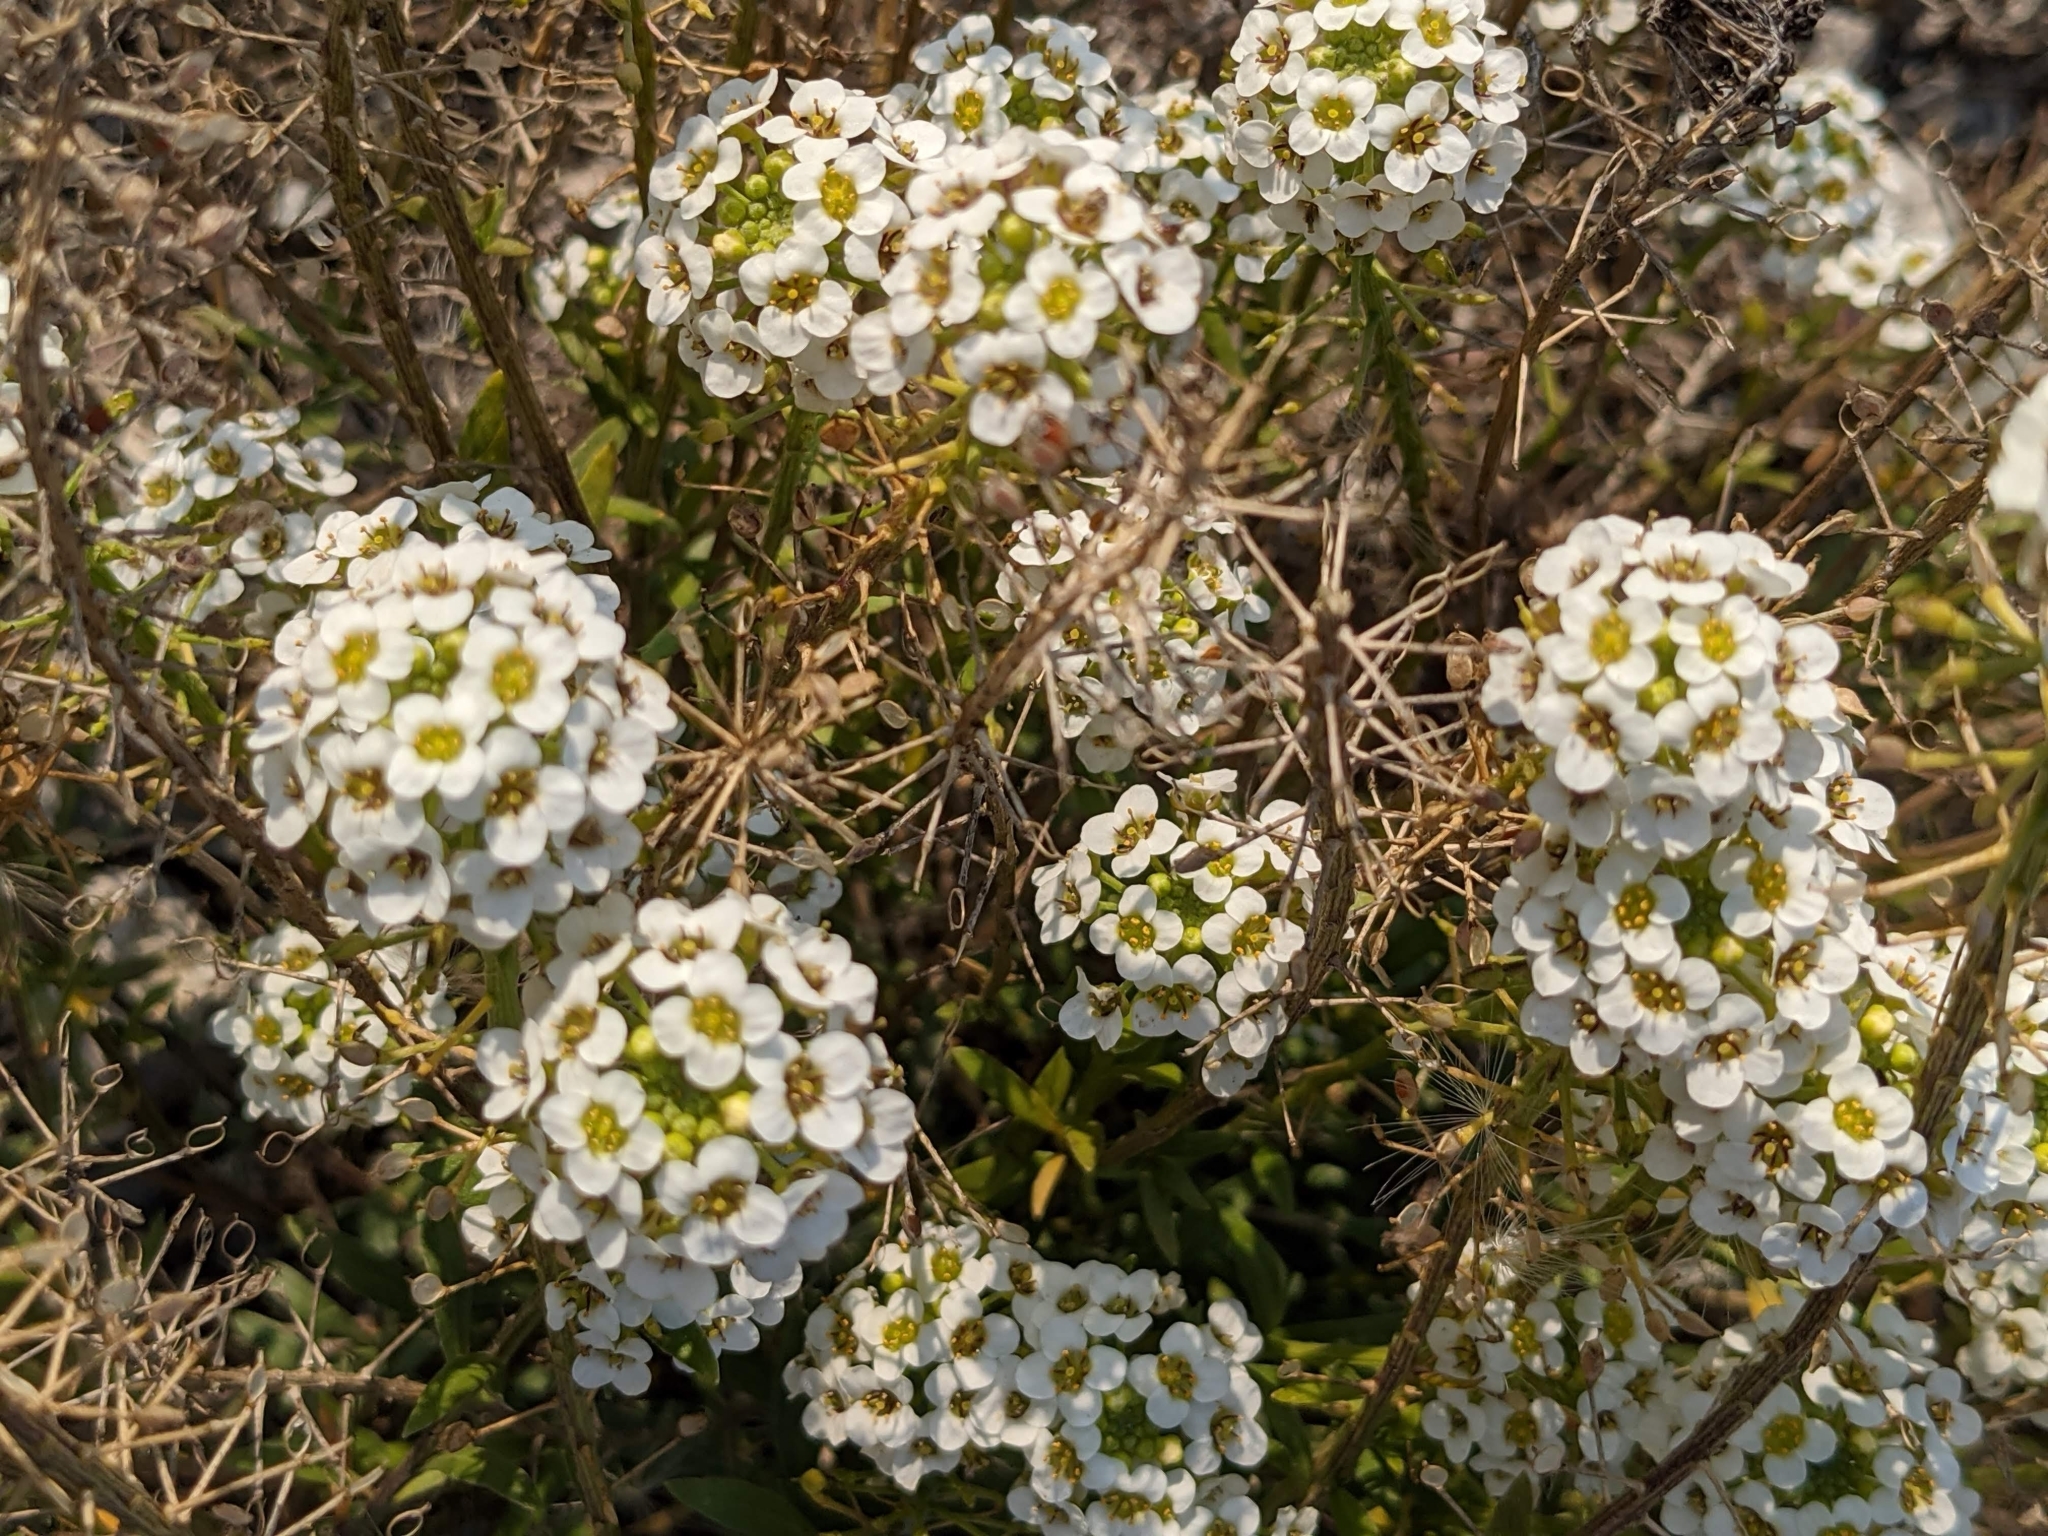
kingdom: Plantae
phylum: Tracheophyta
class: Magnoliopsida
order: Brassicales
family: Brassicaceae
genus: Lobularia
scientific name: Lobularia maritima
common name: Sweet alison
